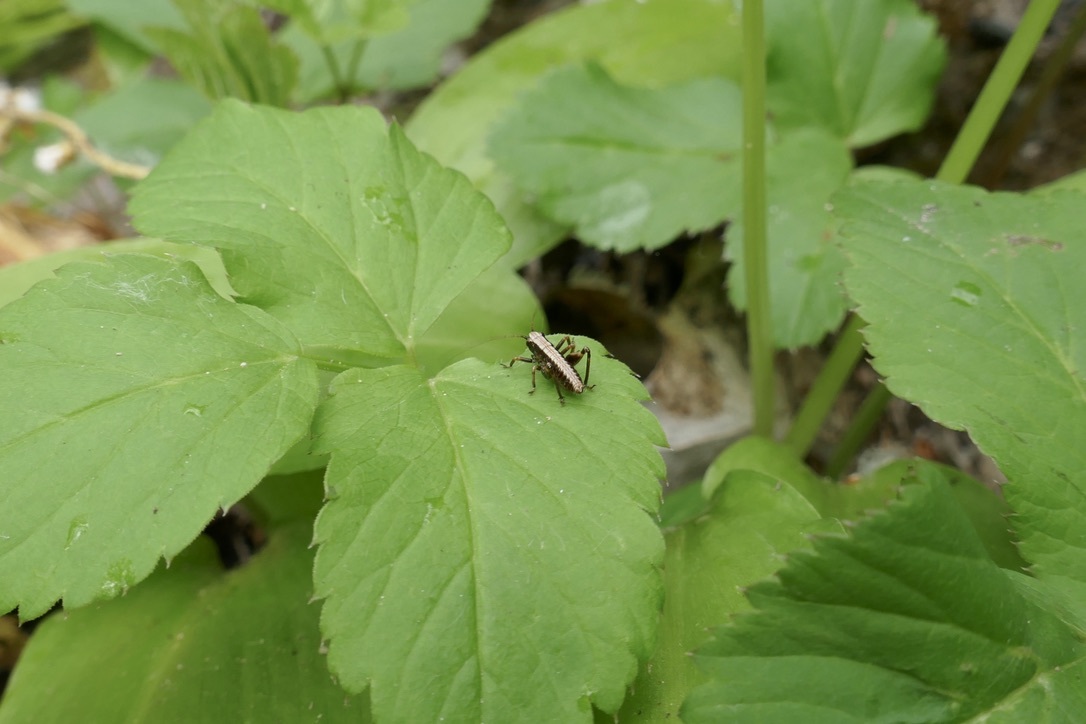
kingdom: Animalia
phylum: Arthropoda
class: Insecta
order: Orthoptera
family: Tettigoniidae
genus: Pholidoptera
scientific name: Pholidoptera griseoaptera
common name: Dark bush-cricket
